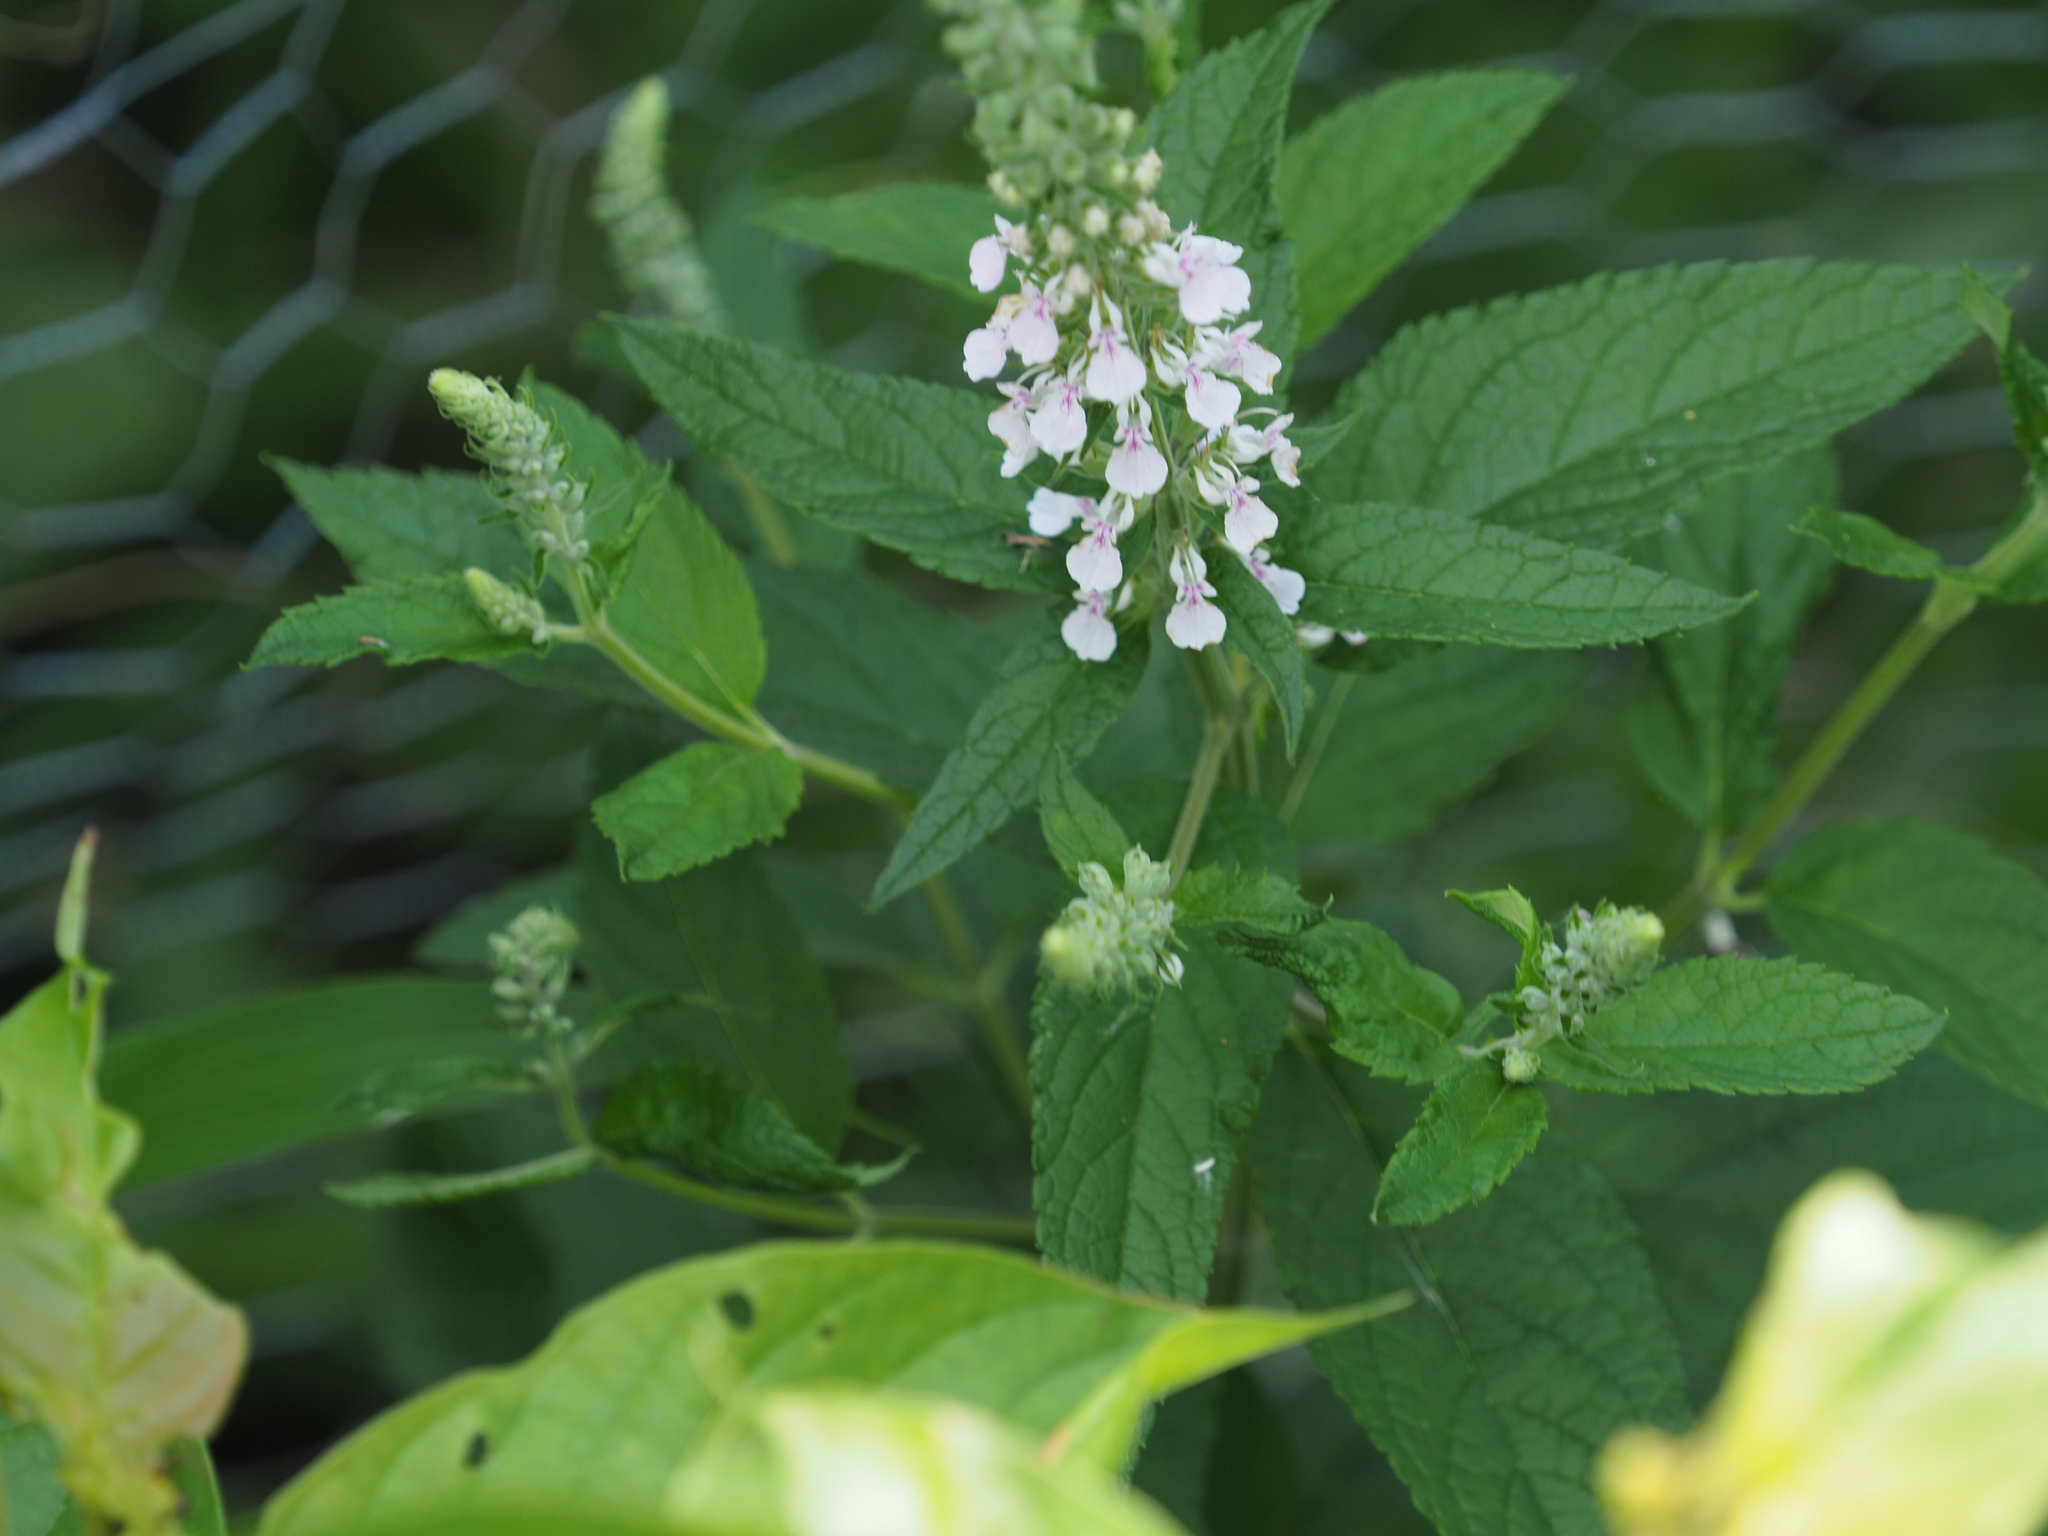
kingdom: Plantae
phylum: Tracheophyta
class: Magnoliopsida
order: Lamiales
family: Lamiaceae
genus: Teucrium
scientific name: Teucrium canadense
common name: American germander
